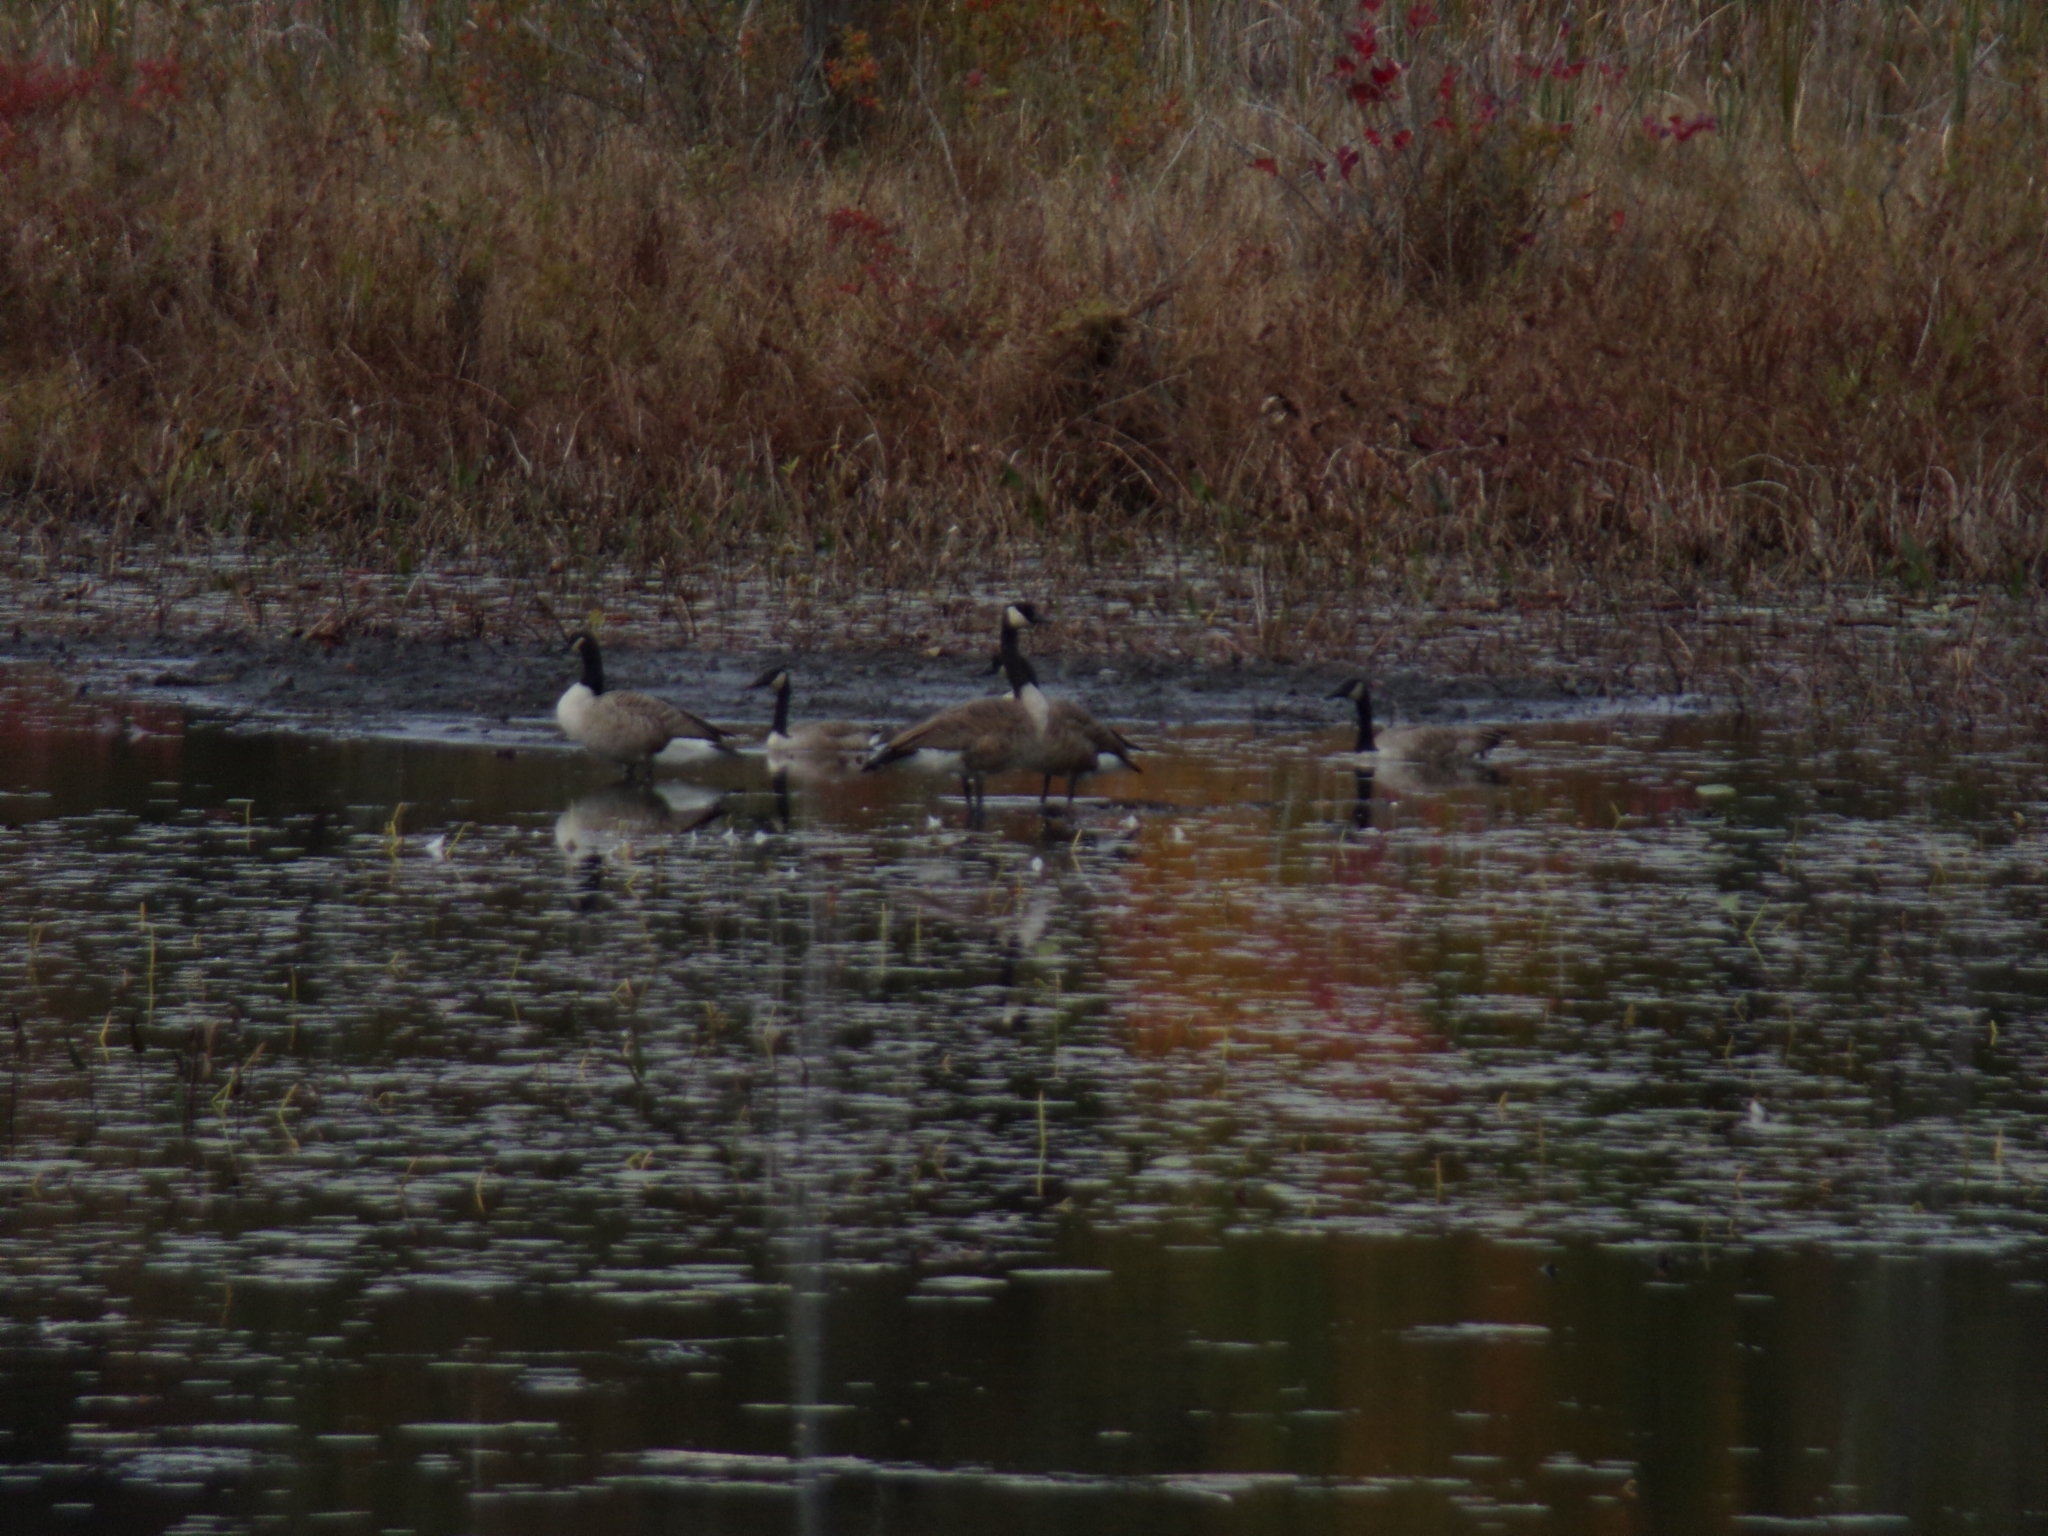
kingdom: Animalia
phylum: Chordata
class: Aves
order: Anseriformes
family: Anatidae
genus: Branta
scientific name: Branta canadensis
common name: Canada goose
